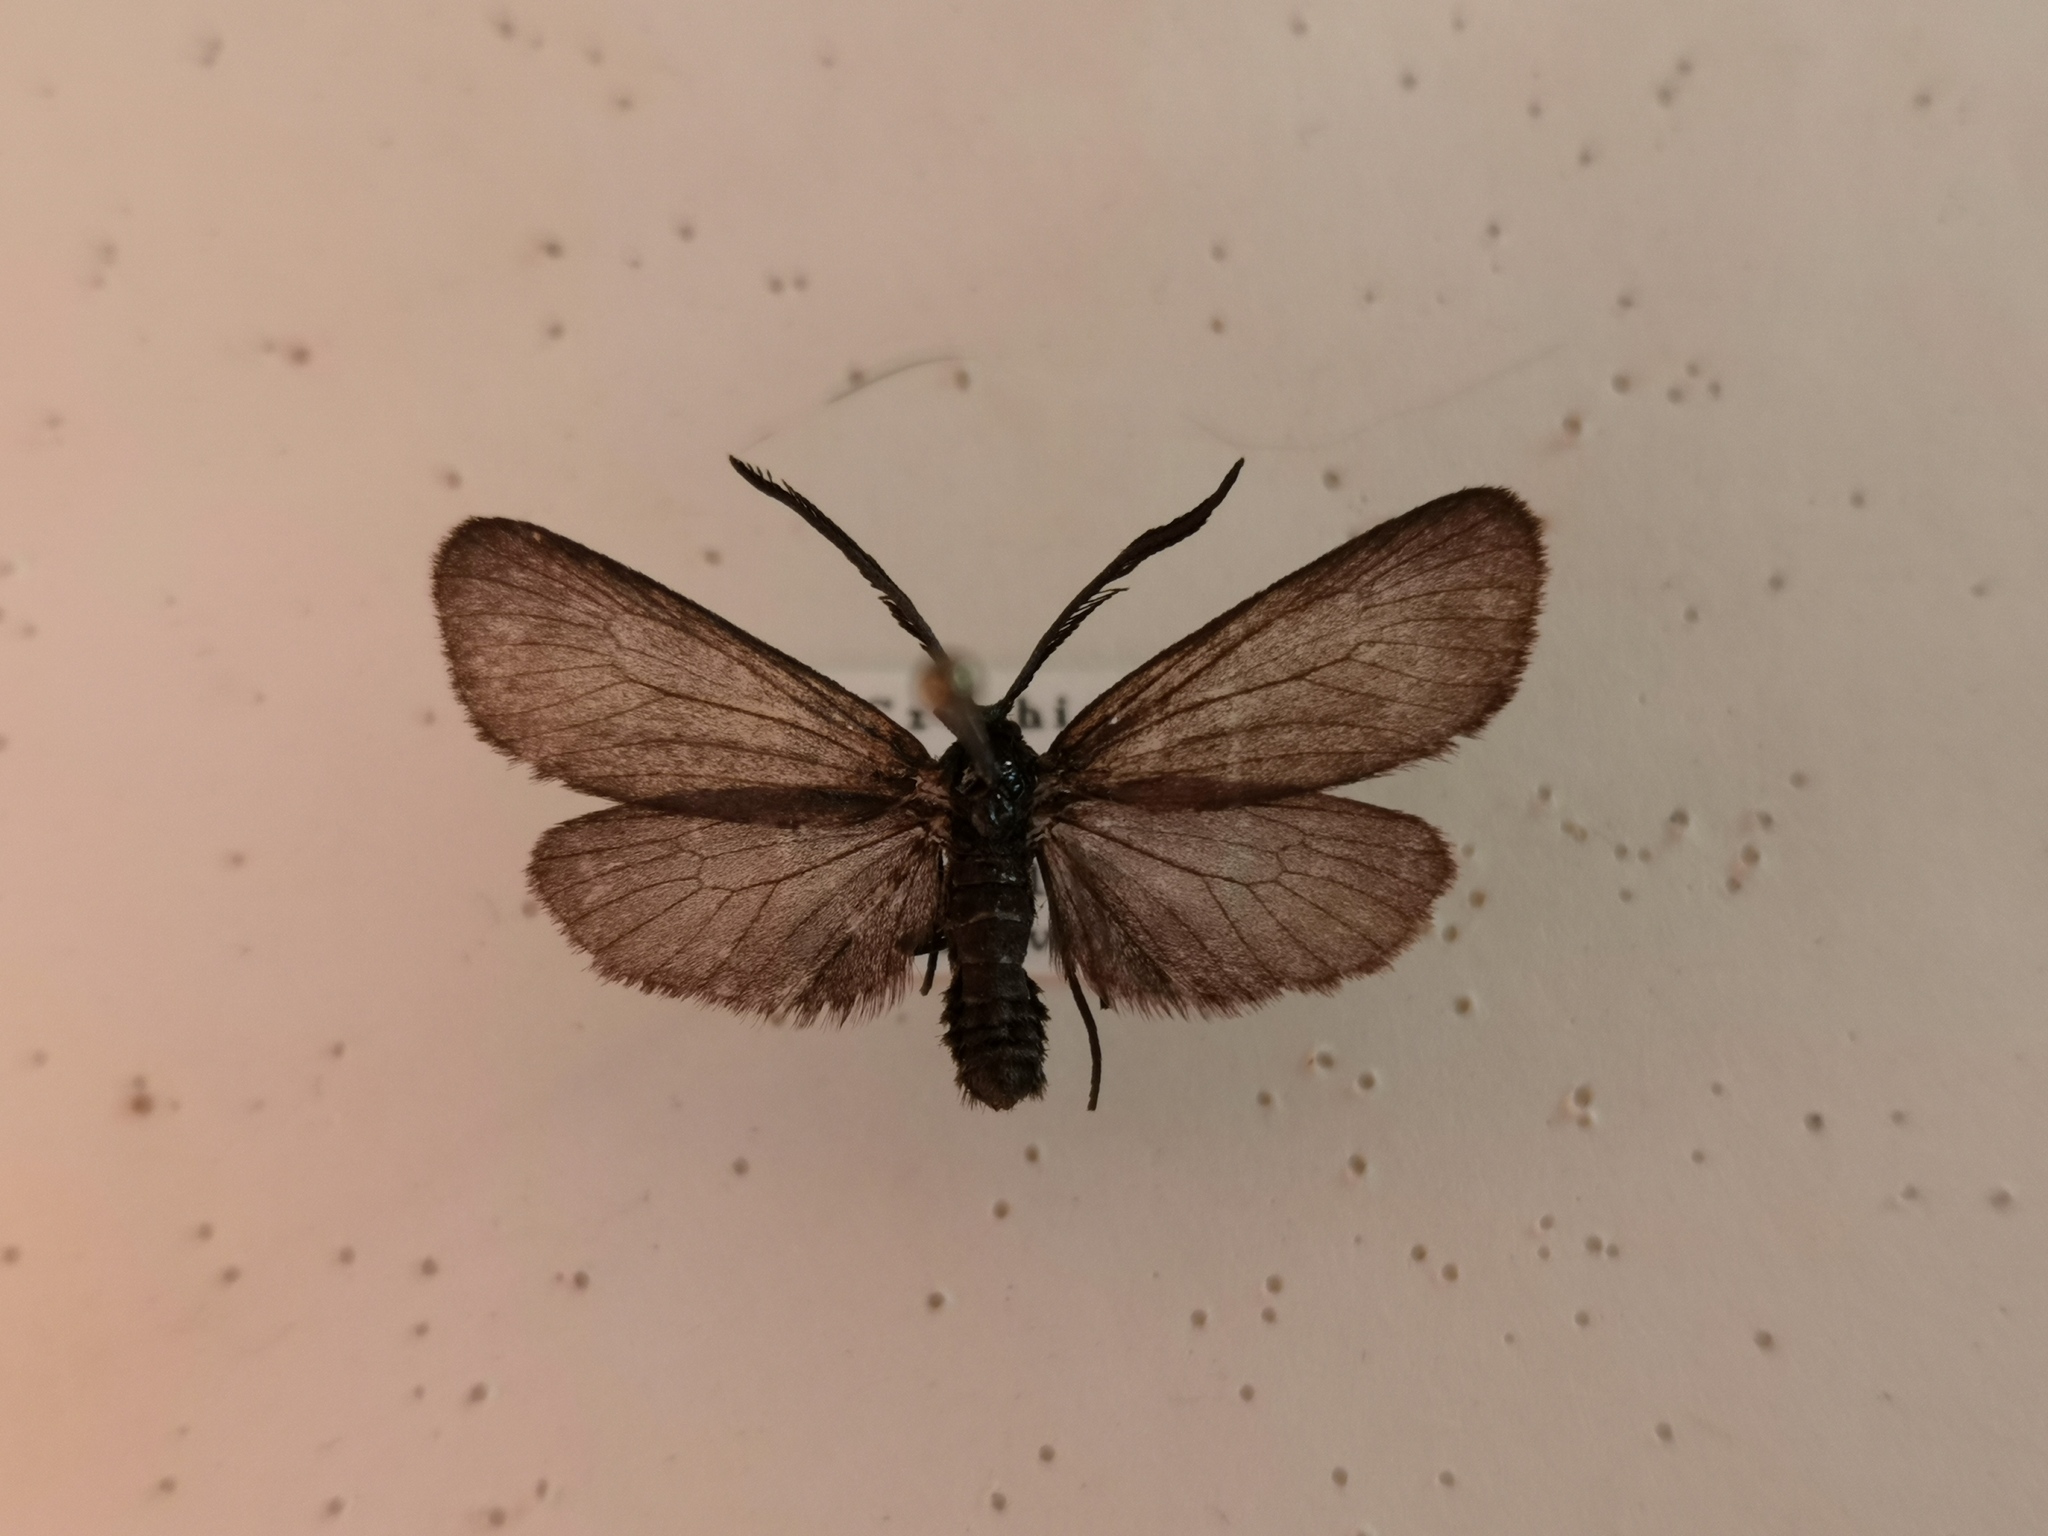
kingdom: Animalia
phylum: Arthropoda
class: Insecta
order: Lepidoptera
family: Zygaenidae
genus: Rhagades
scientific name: Rhagades pruni
